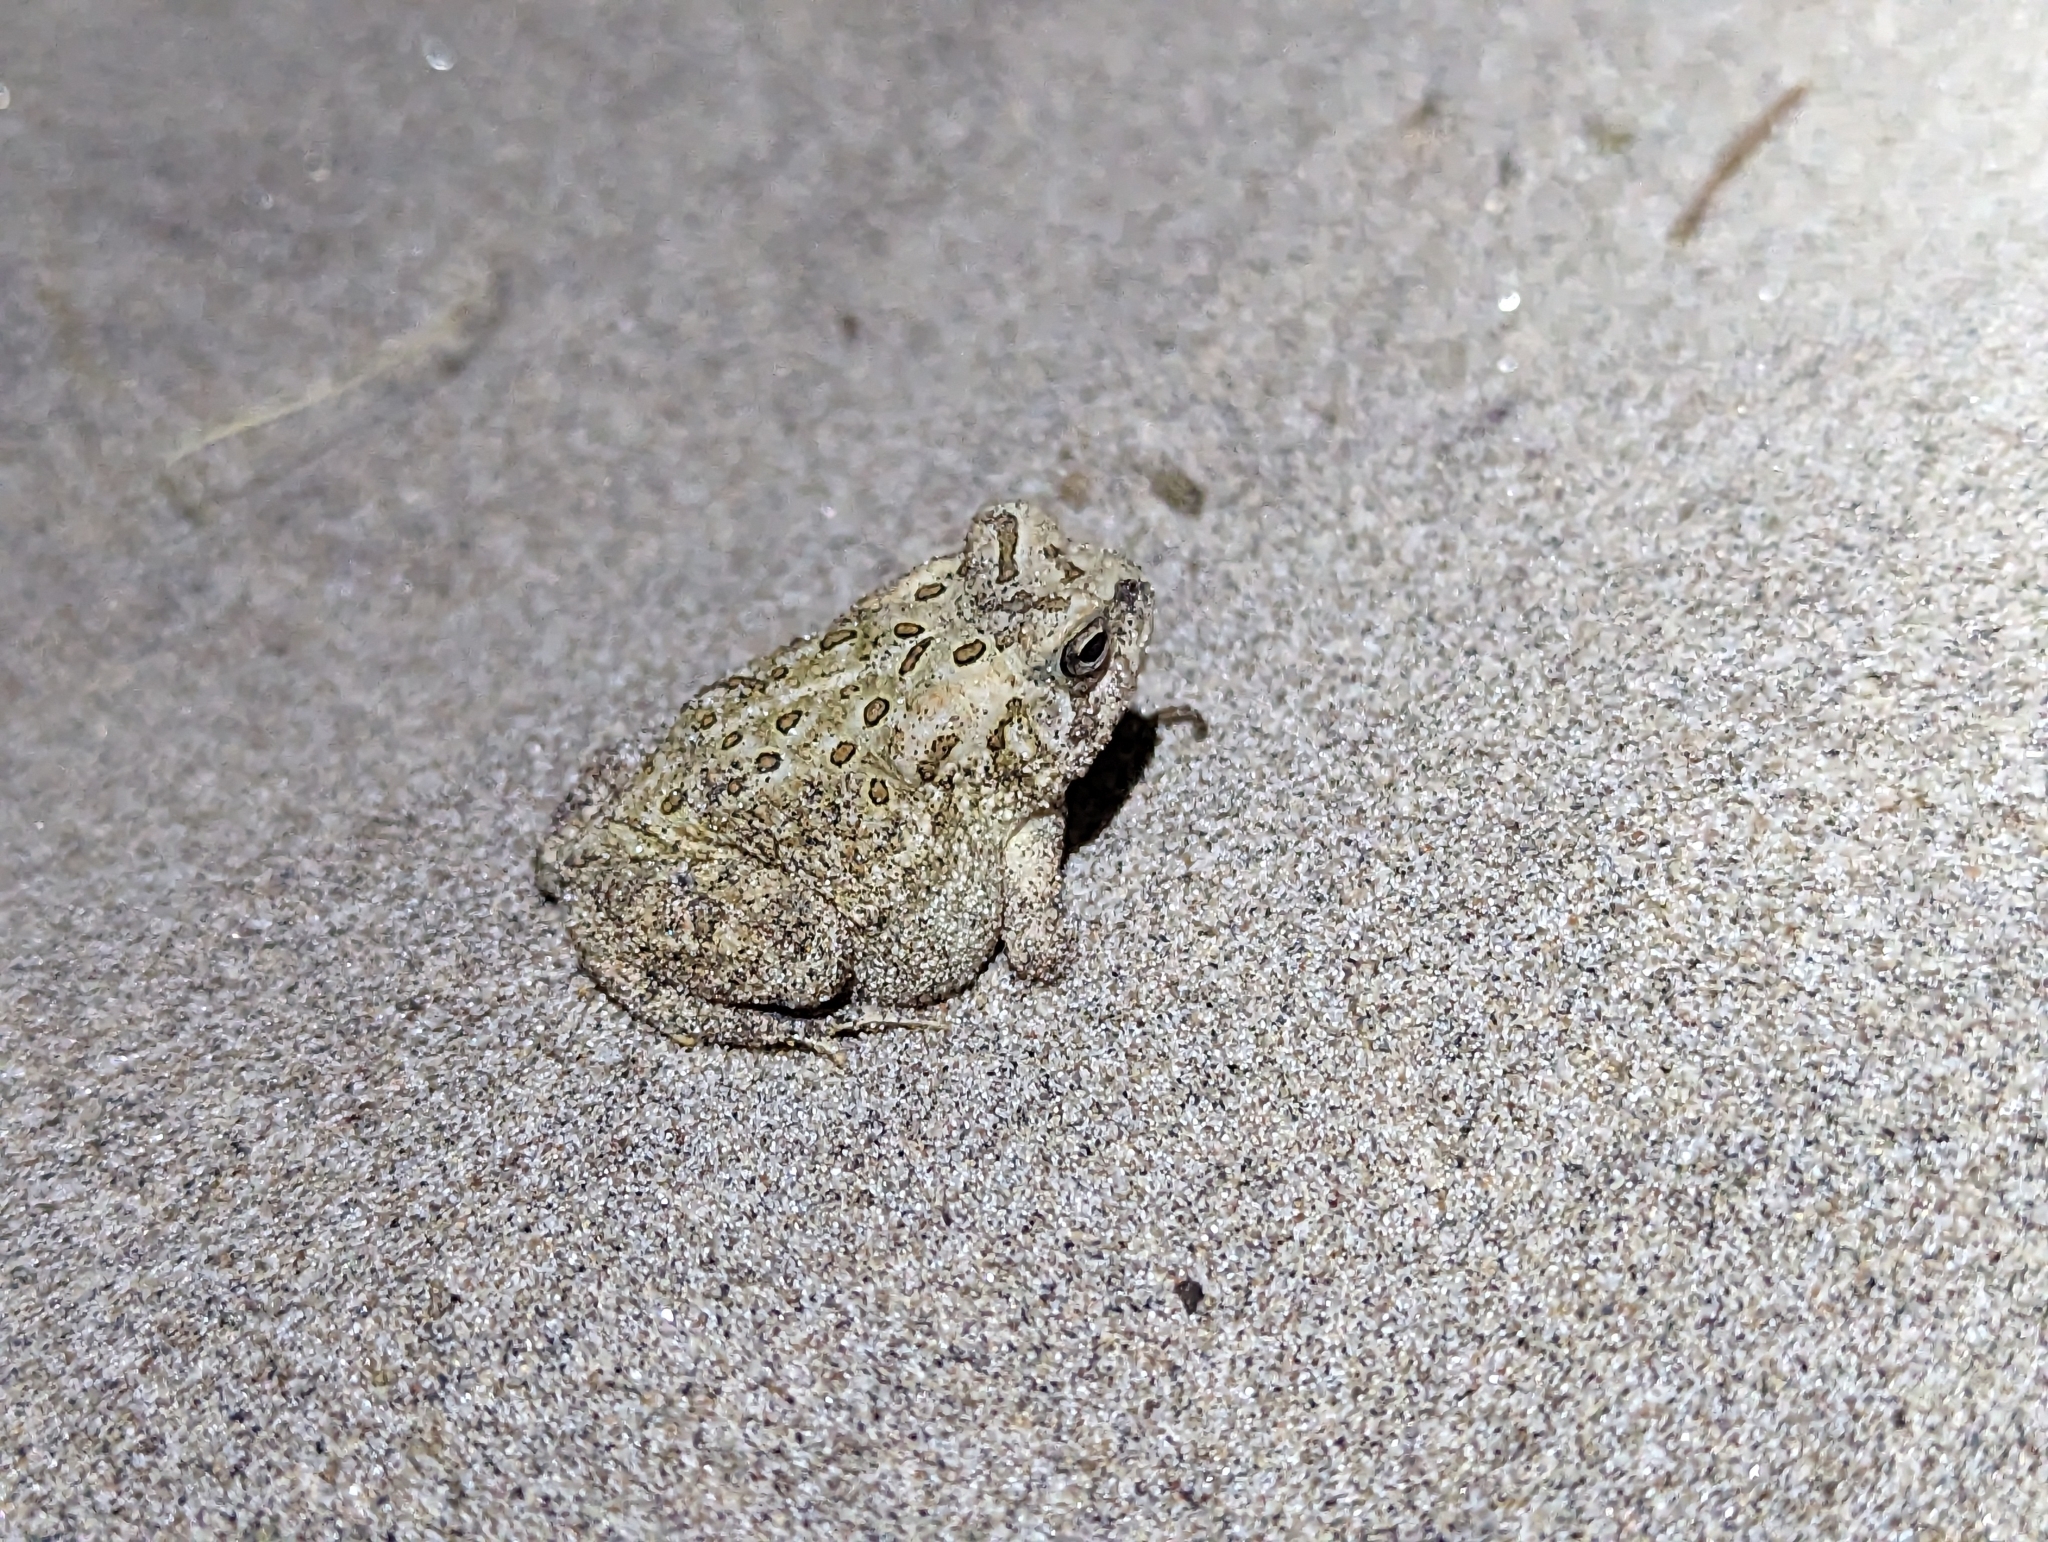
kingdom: Animalia
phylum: Chordata
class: Amphibia
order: Anura
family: Bufonidae
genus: Anaxyrus
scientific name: Anaxyrus fowleri
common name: Fowler's toad
